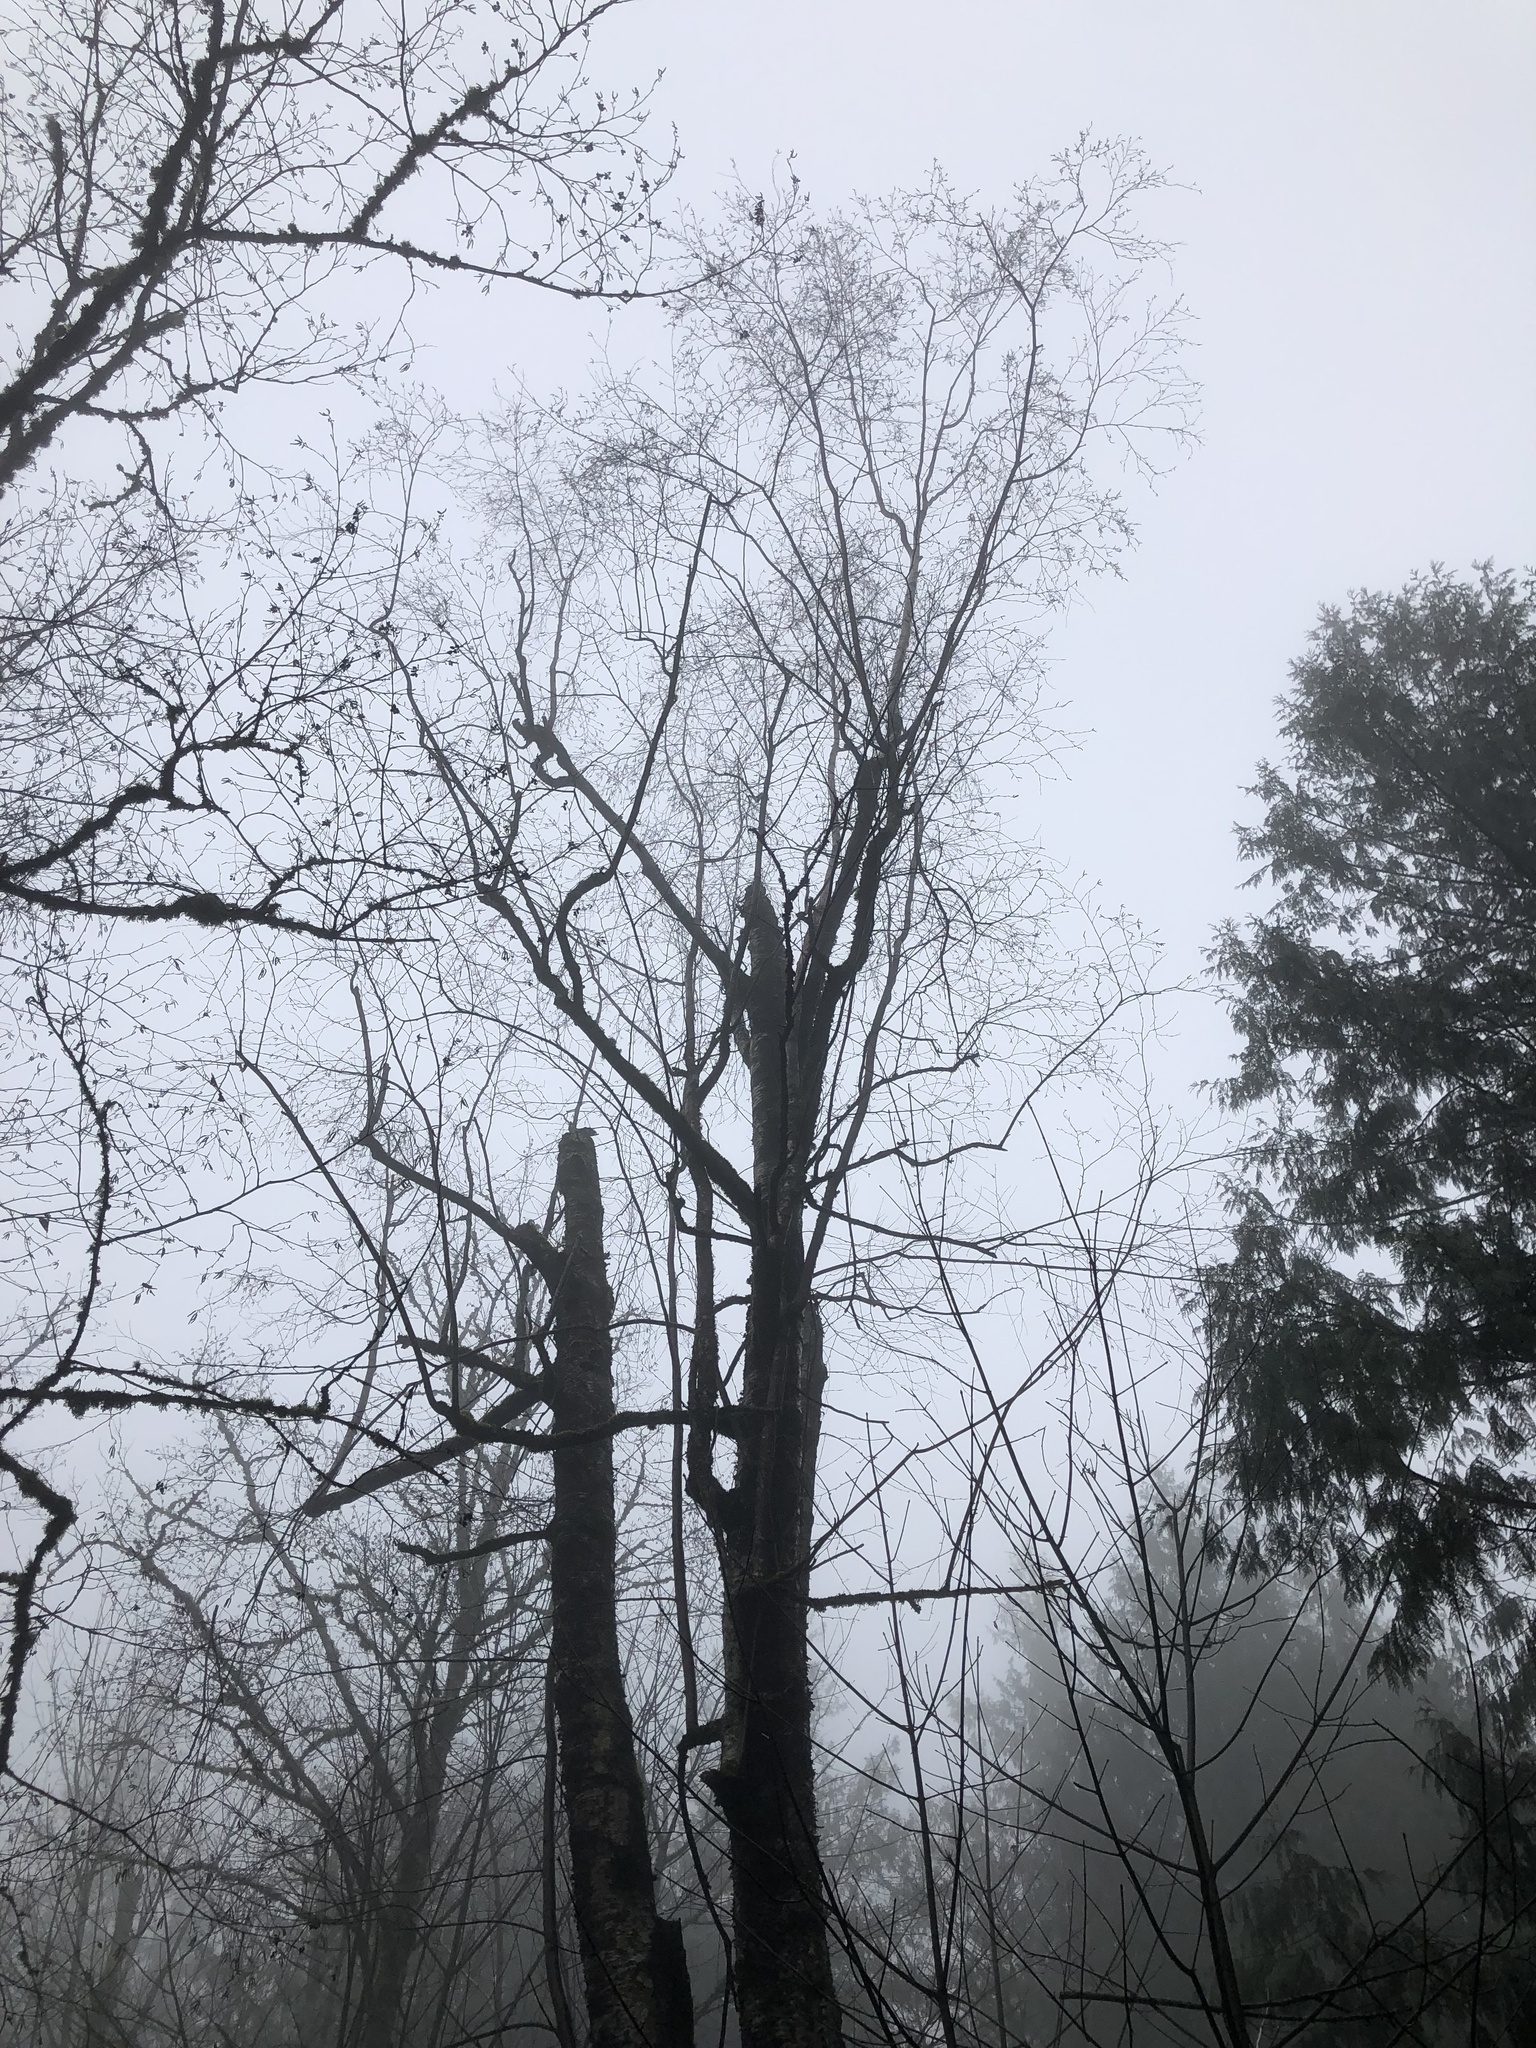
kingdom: Plantae
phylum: Tracheophyta
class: Magnoliopsida
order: Fagales
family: Betulaceae
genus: Betula
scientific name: Betula papyrifera
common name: Paper birch
